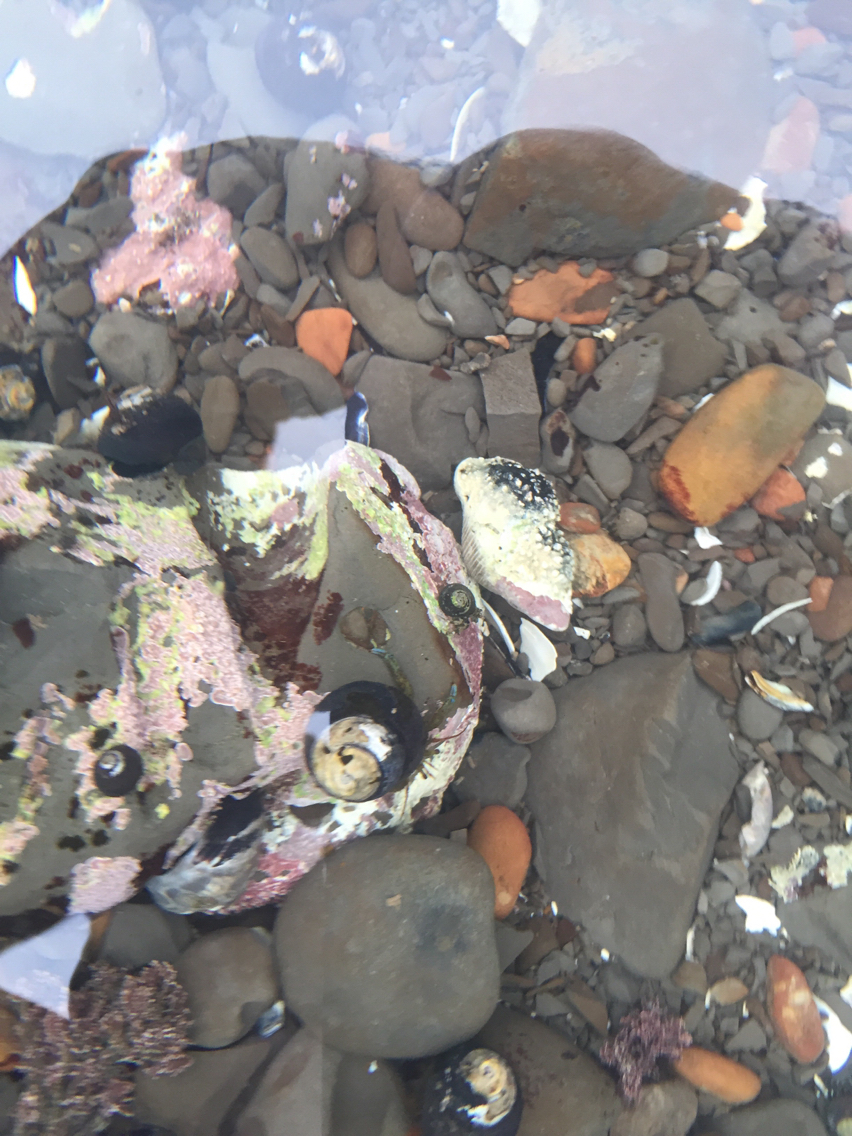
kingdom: Animalia
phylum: Arthropoda
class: Malacostraca
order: Decapoda
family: Paguridae
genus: Pagurus
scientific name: Pagurus samuelis
